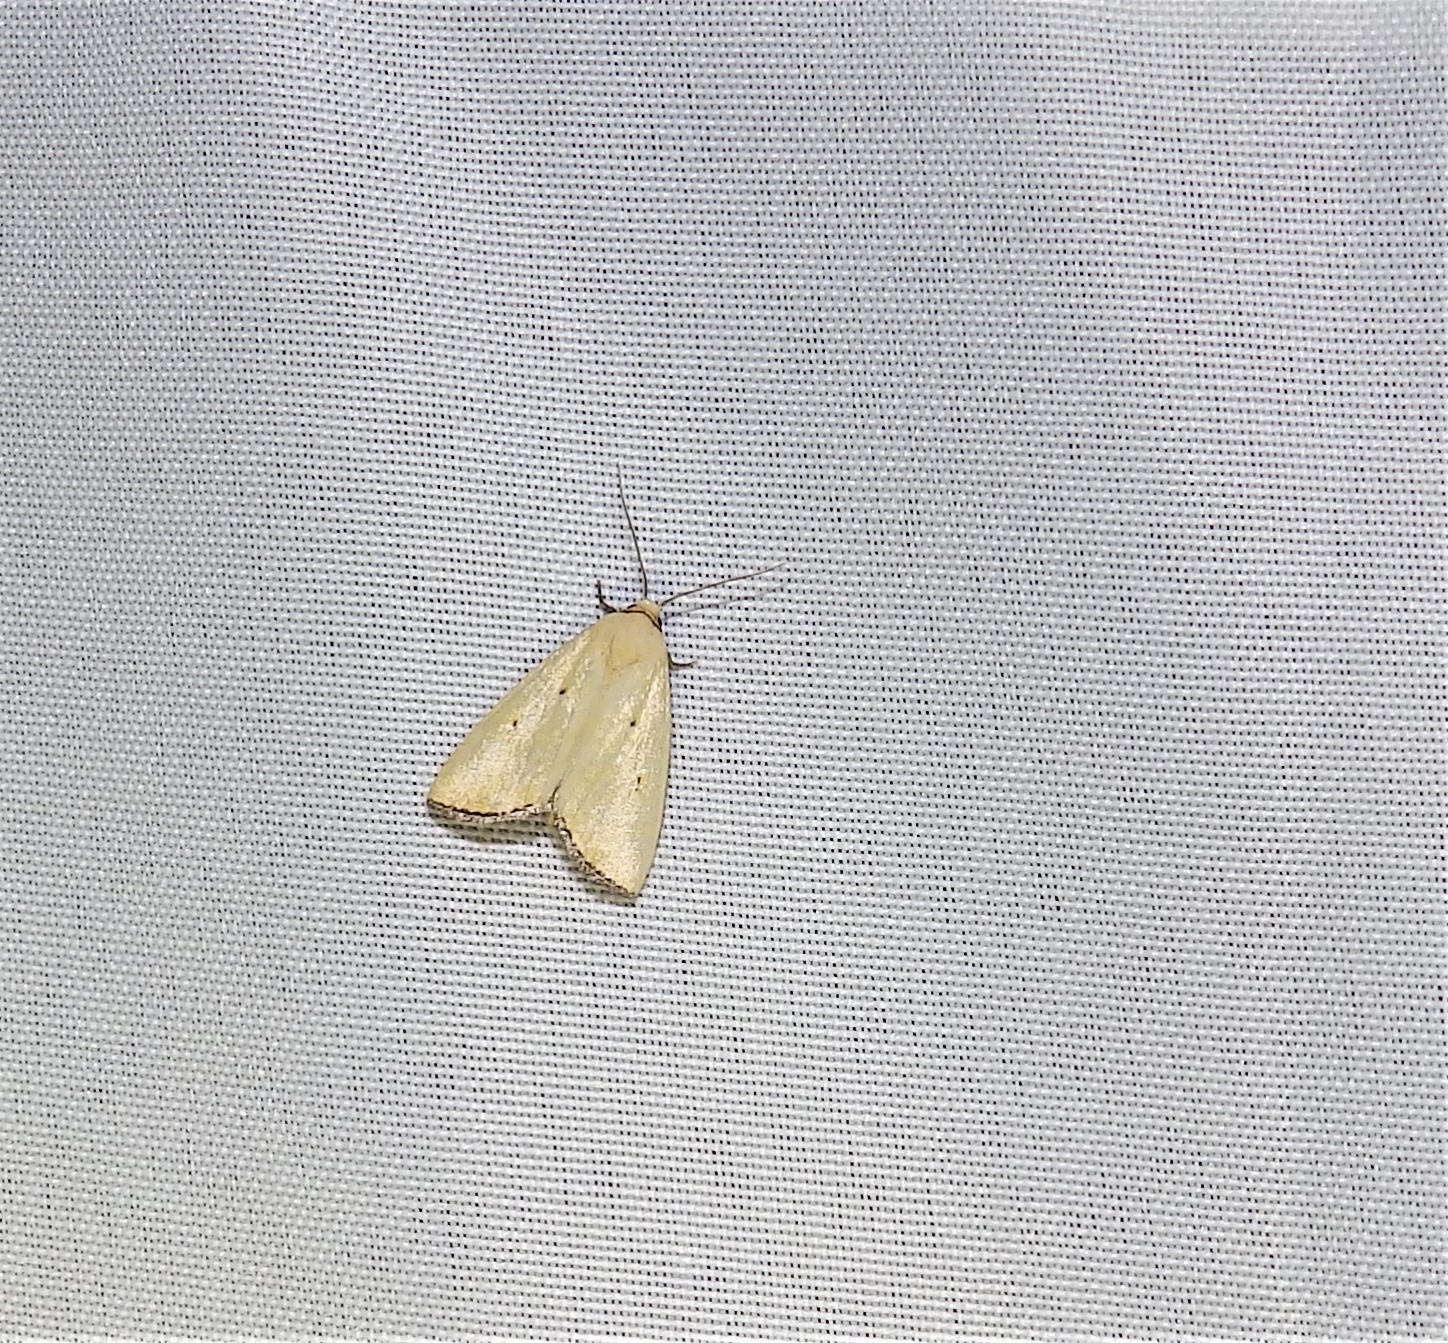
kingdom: Animalia
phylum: Arthropoda
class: Insecta
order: Lepidoptera
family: Noctuidae
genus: Marimatha
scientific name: Marimatha nigrofimbria
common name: Black-bordered lemon moth
